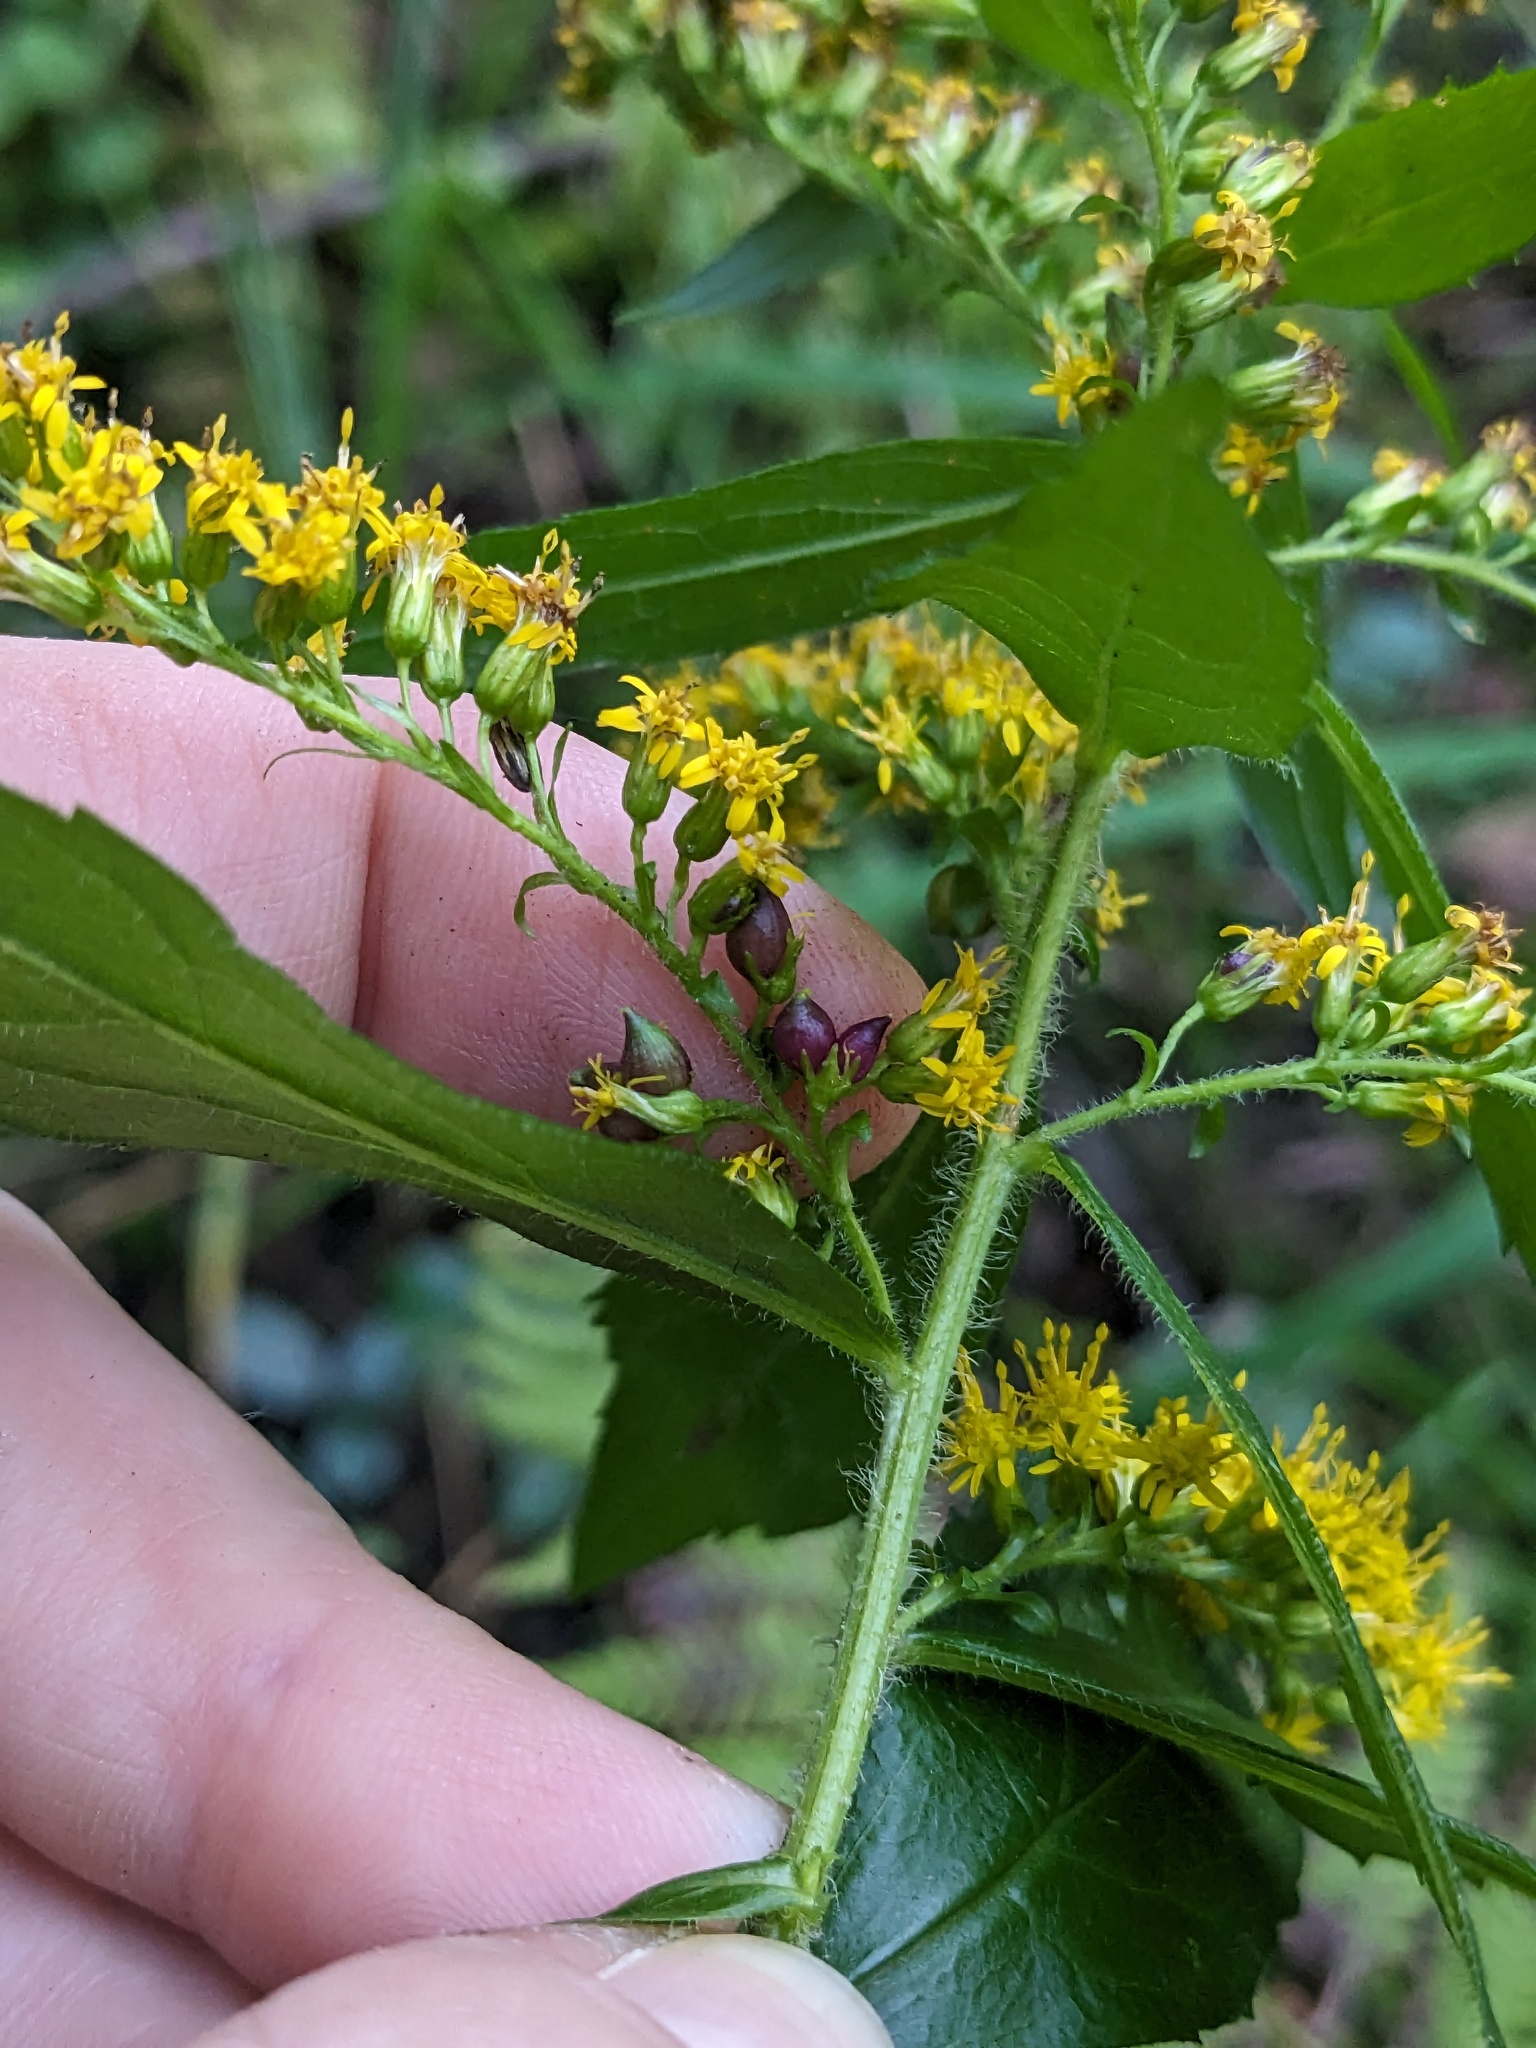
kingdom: Animalia
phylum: Arthropoda
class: Insecta
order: Diptera
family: Cecidomyiidae
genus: Schizomyia
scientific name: Schizomyia racemicola
